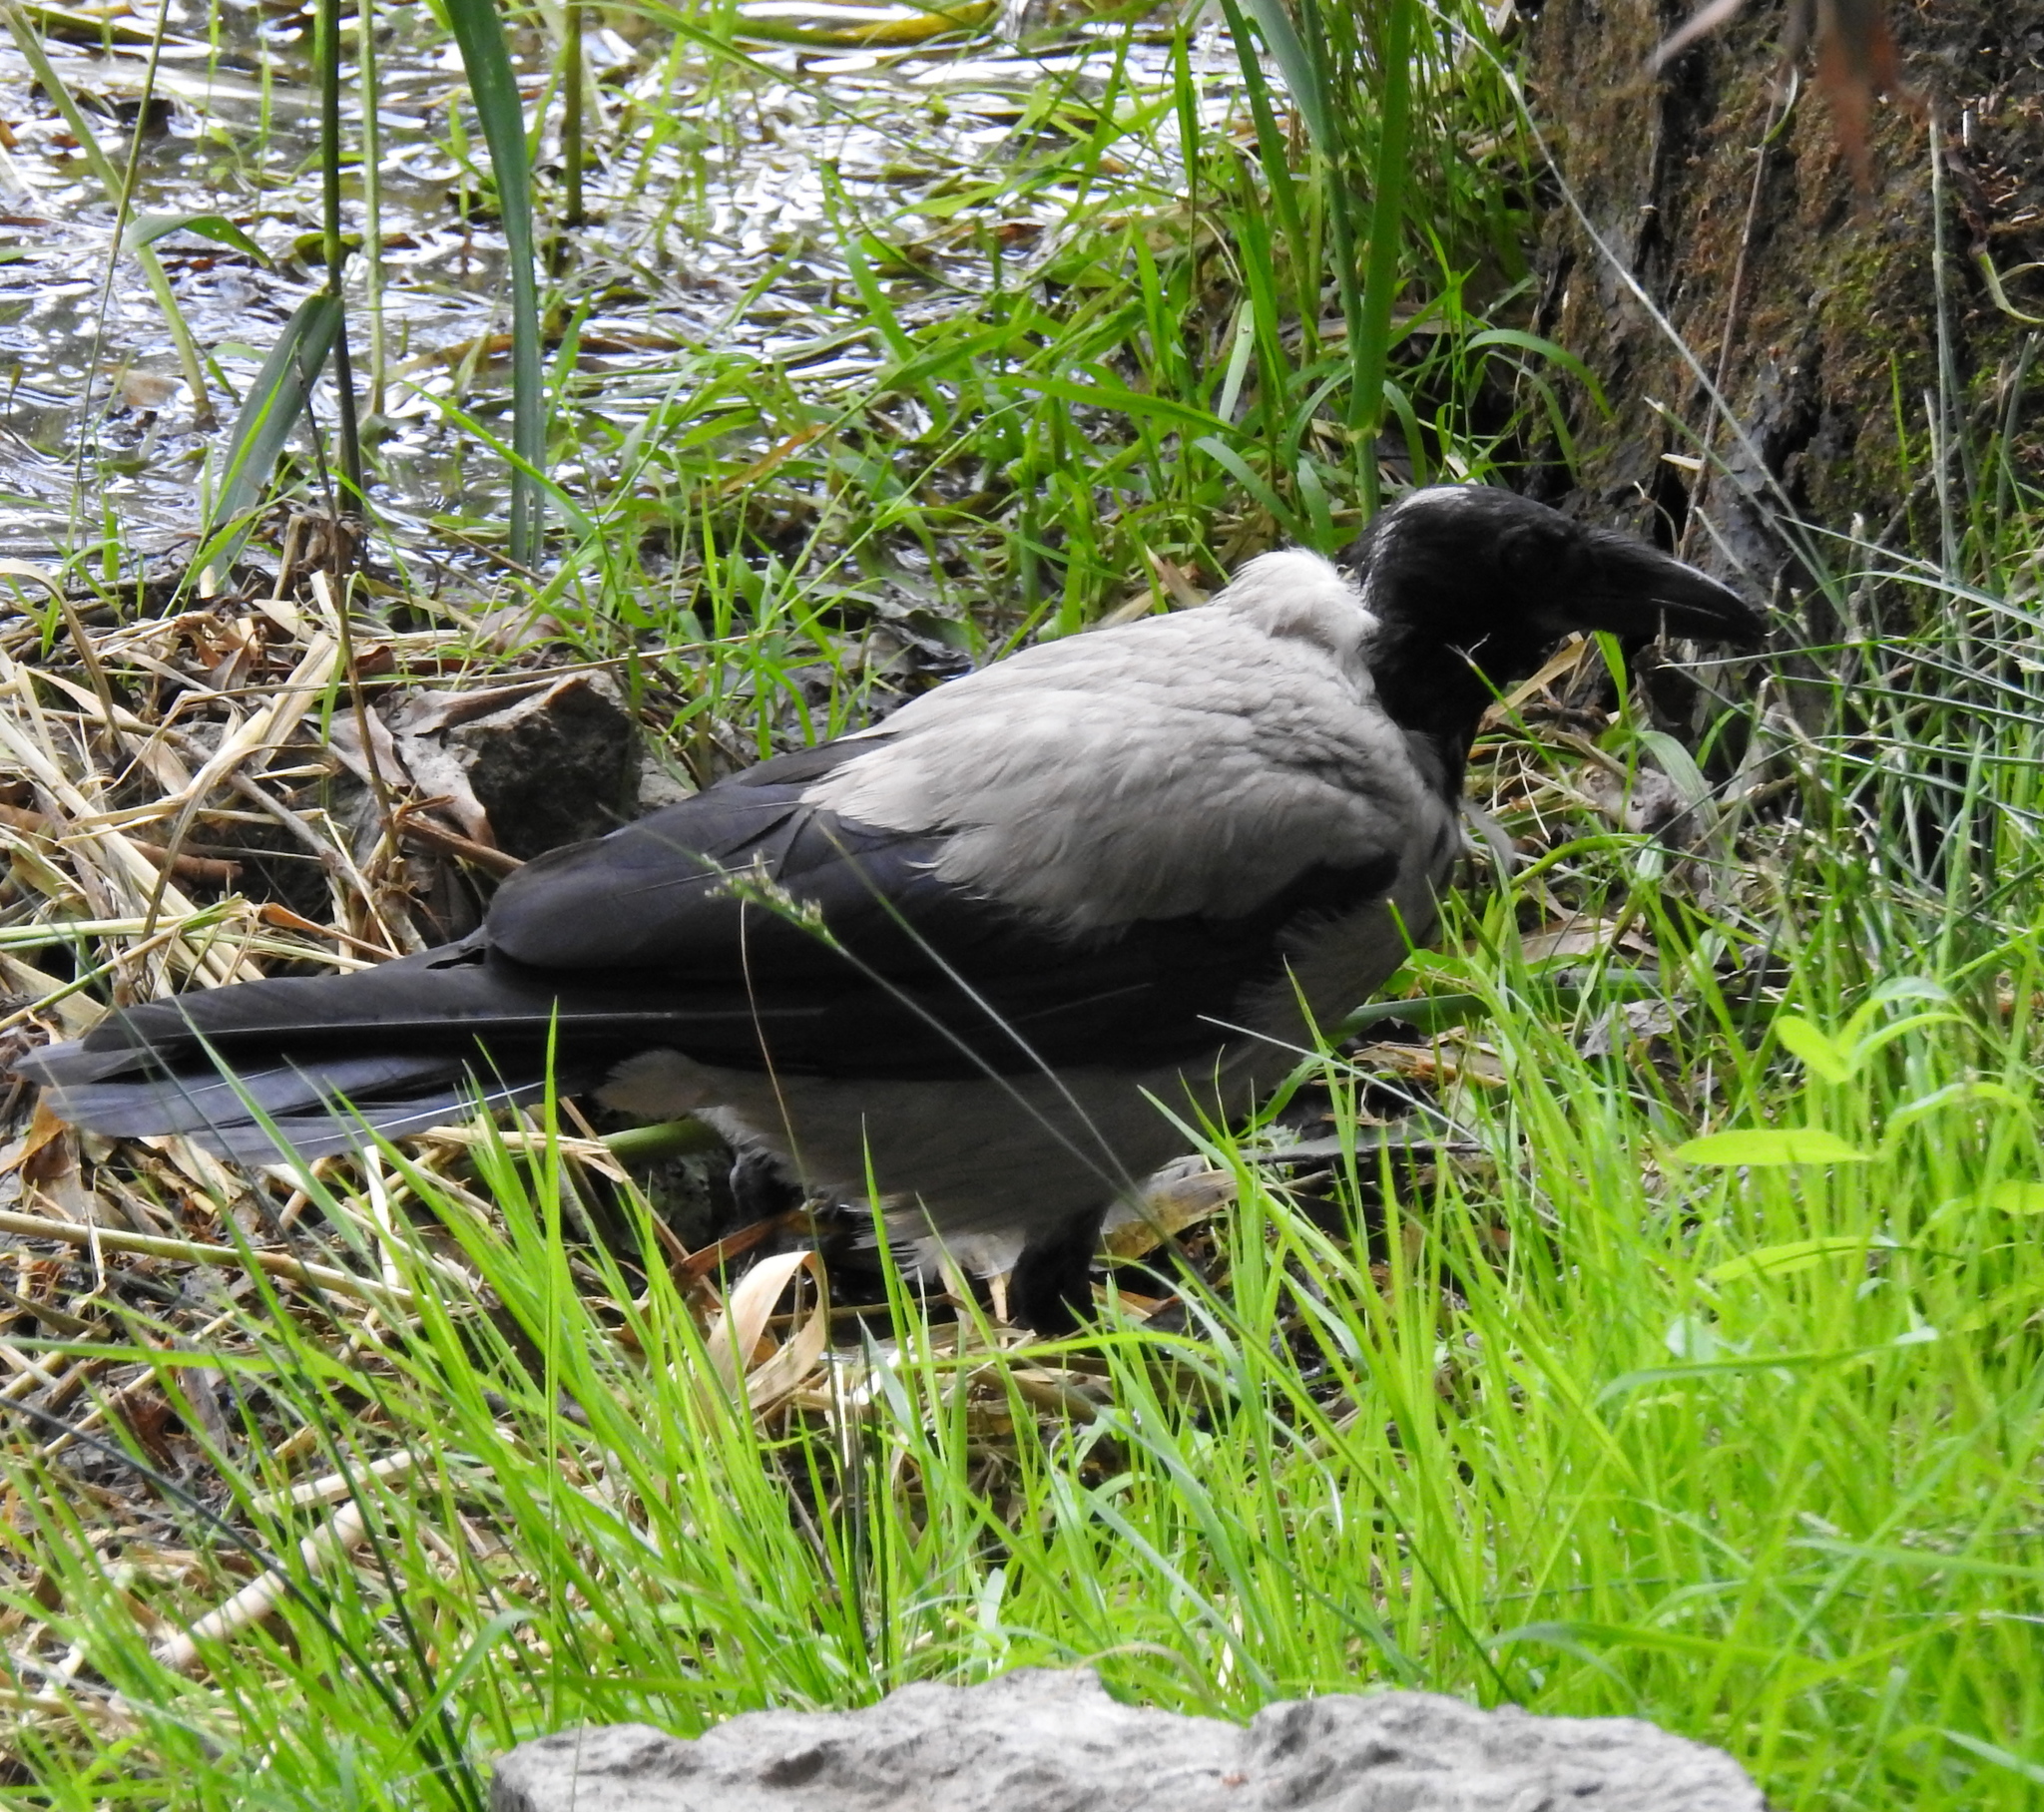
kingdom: Animalia
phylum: Chordata
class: Aves
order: Passeriformes
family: Corvidae
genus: Corvus
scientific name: Corvus cornix
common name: Hooded crow
